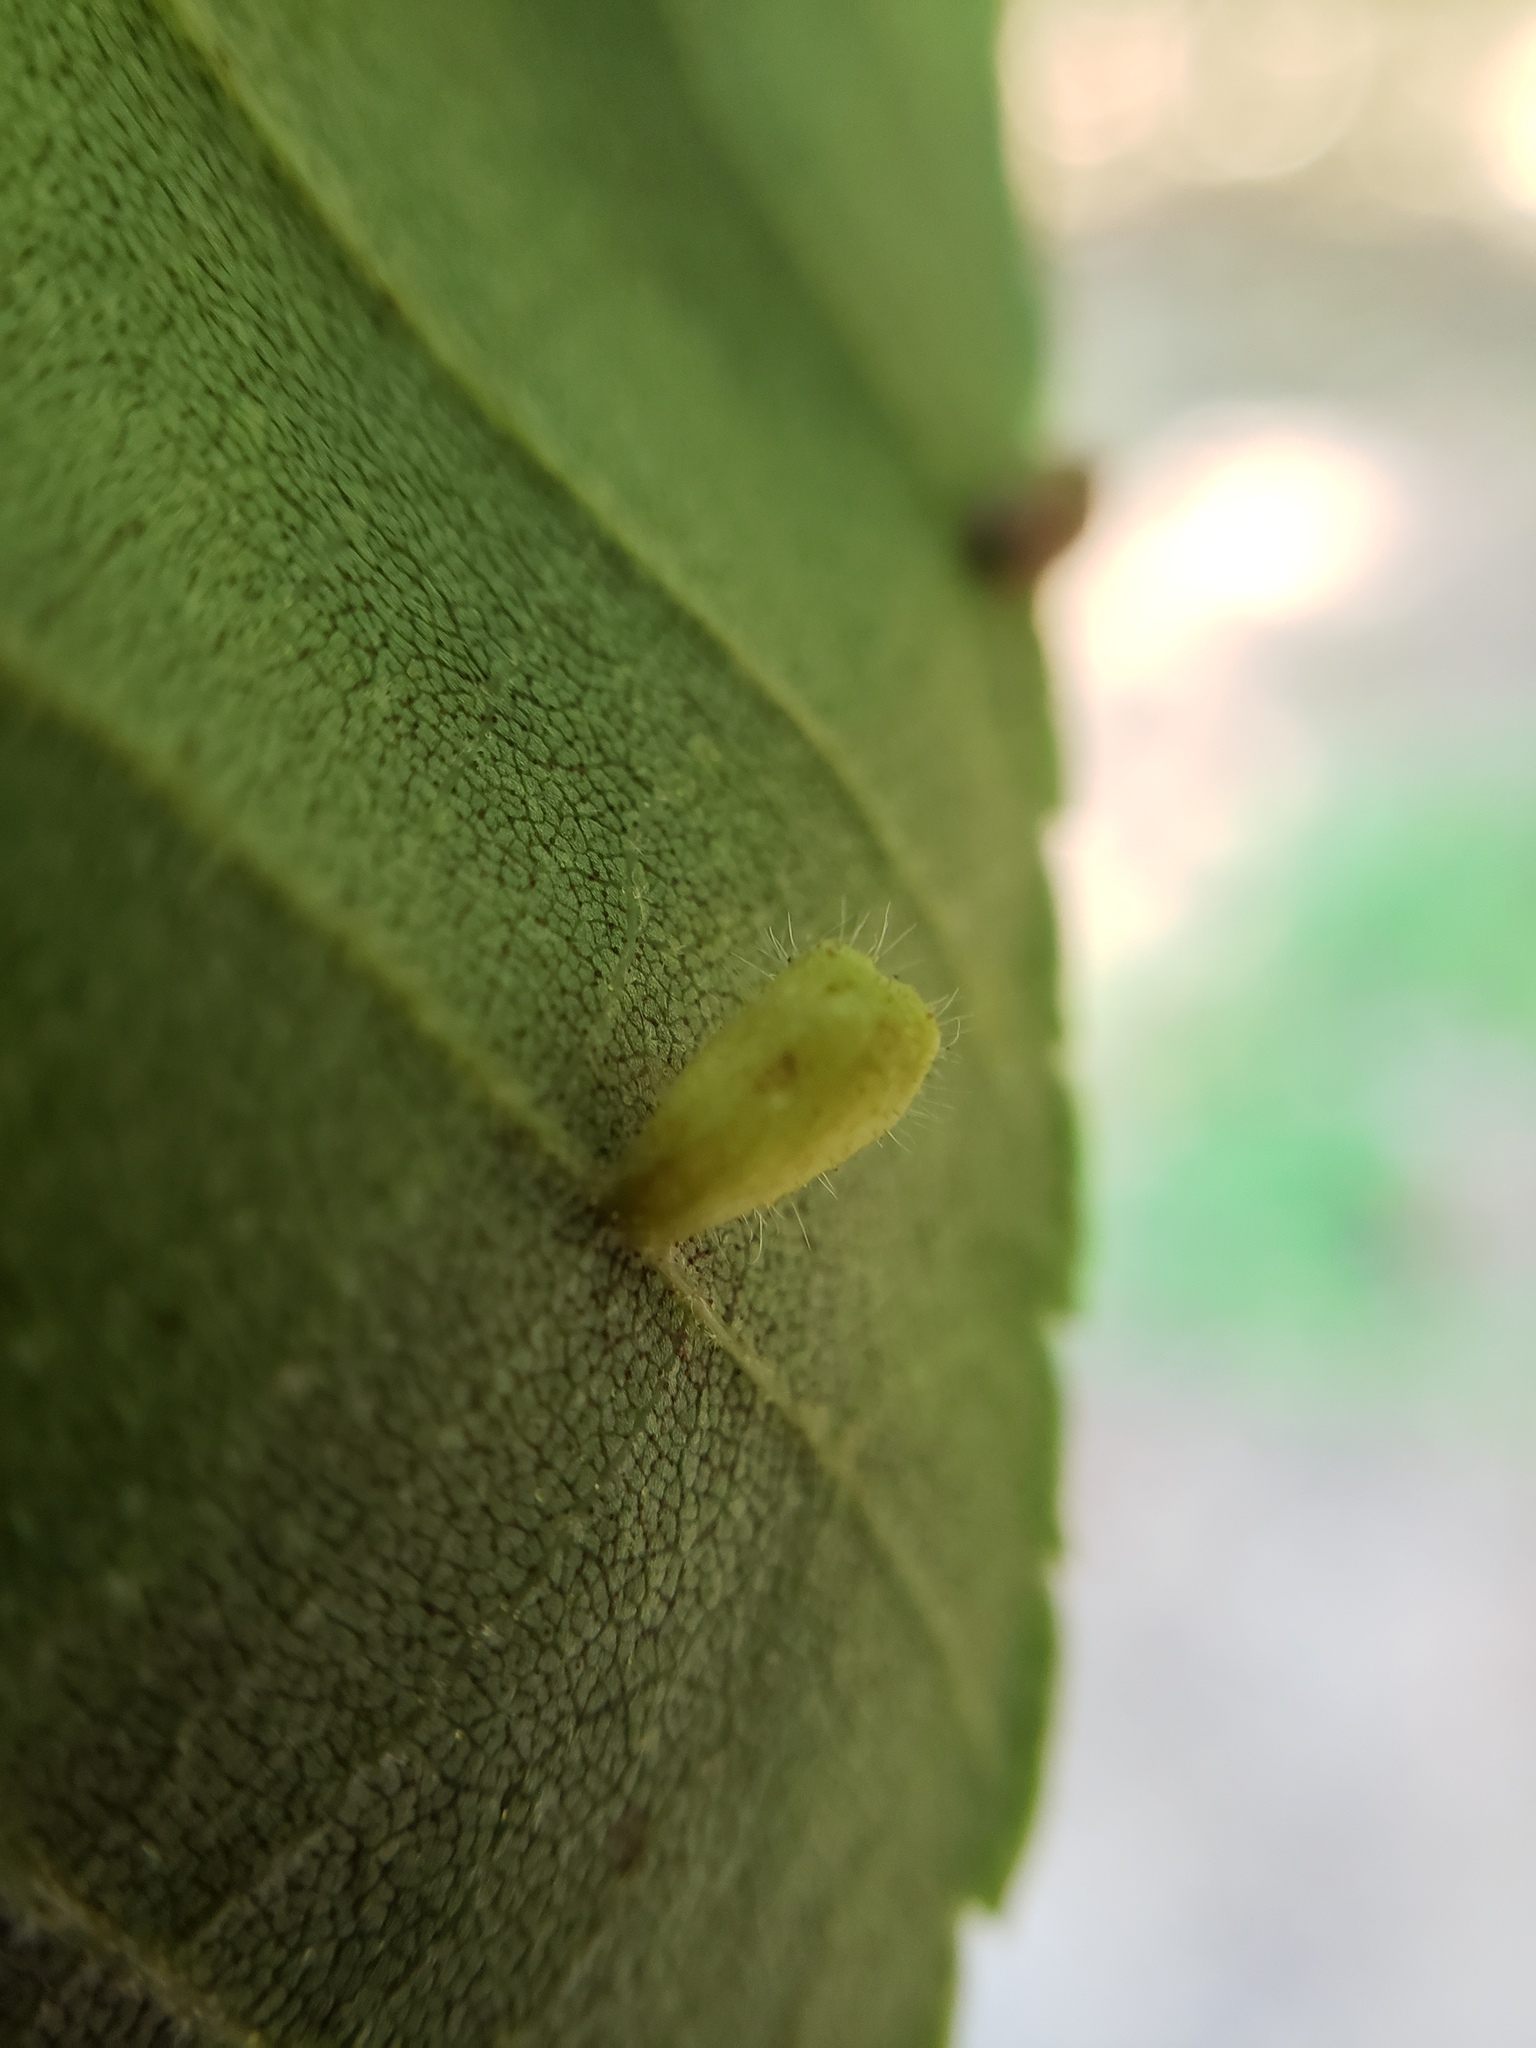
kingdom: Animalia
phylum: Arthropoda
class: Insecta
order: Diptera
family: Cecidomyiidae
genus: Contarinia
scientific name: Contarinia cucumata
